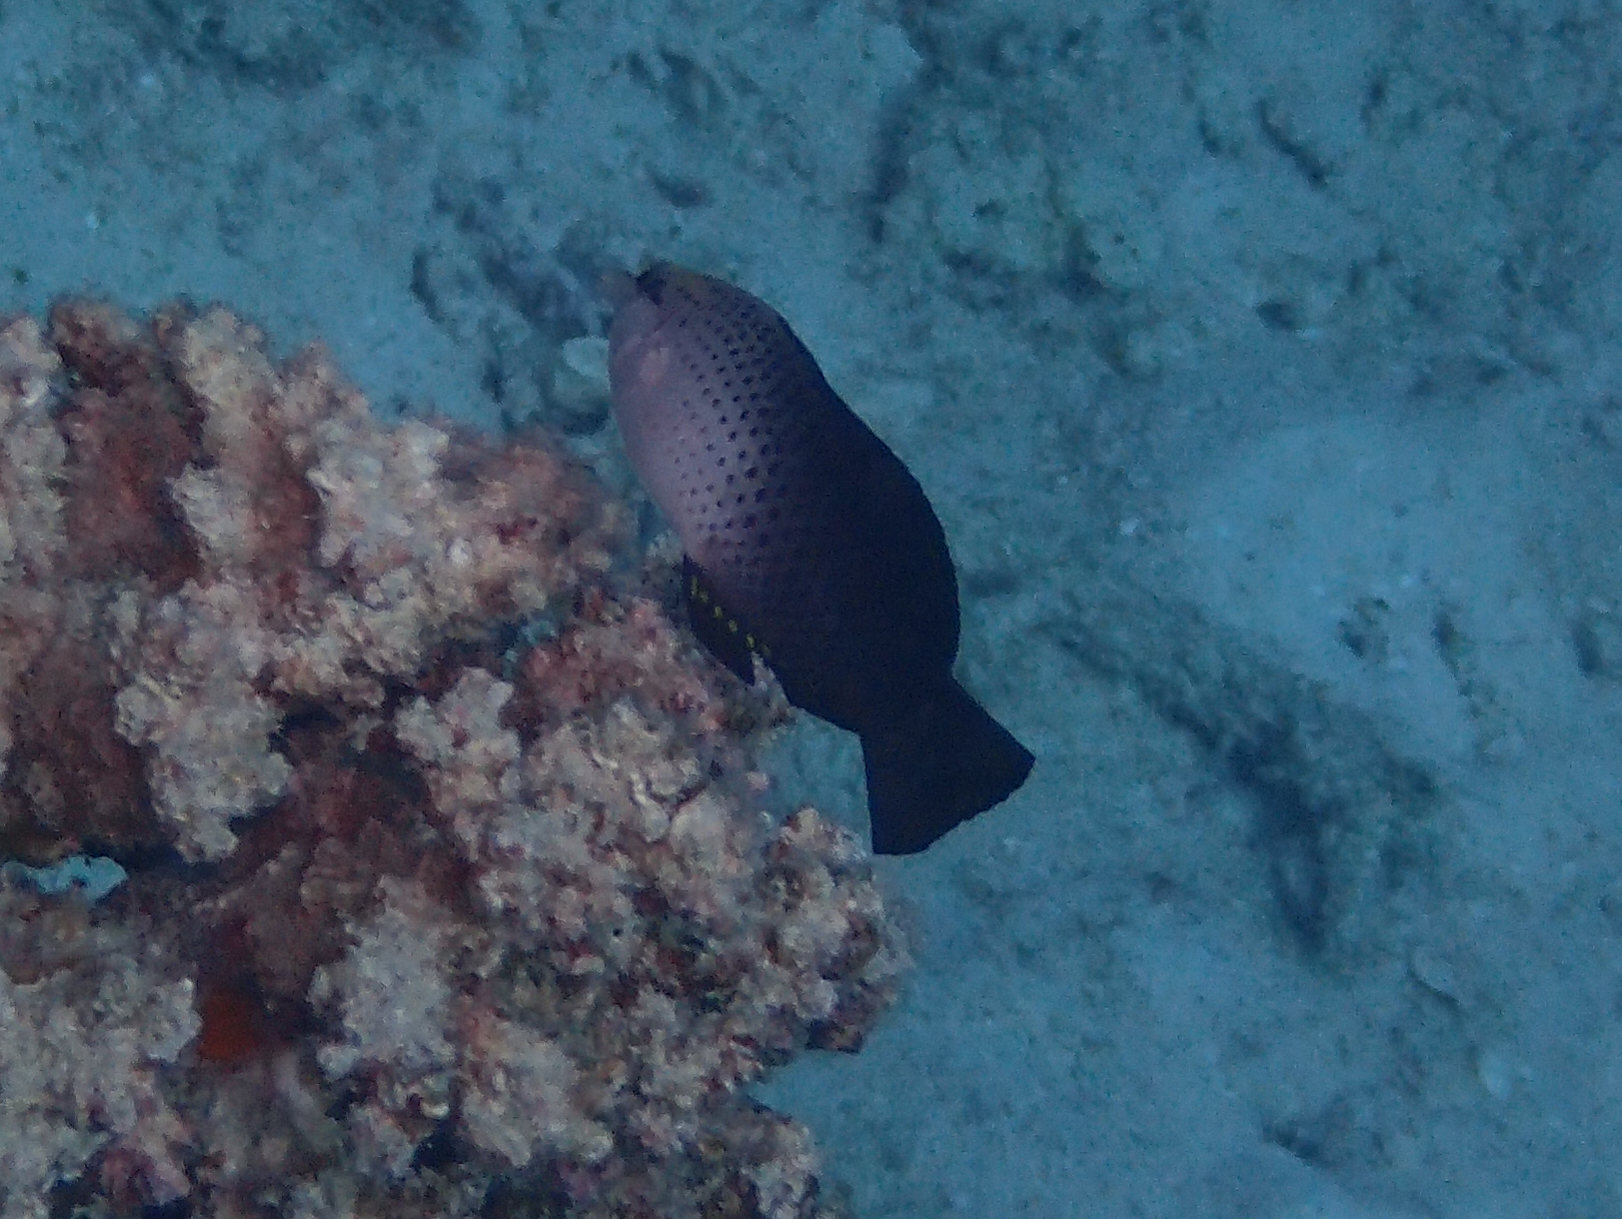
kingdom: Animalia
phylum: Chordata
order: Perciformes
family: Labridae
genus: Gomphosus
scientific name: Gomphosus varius
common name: Bird wrasse
